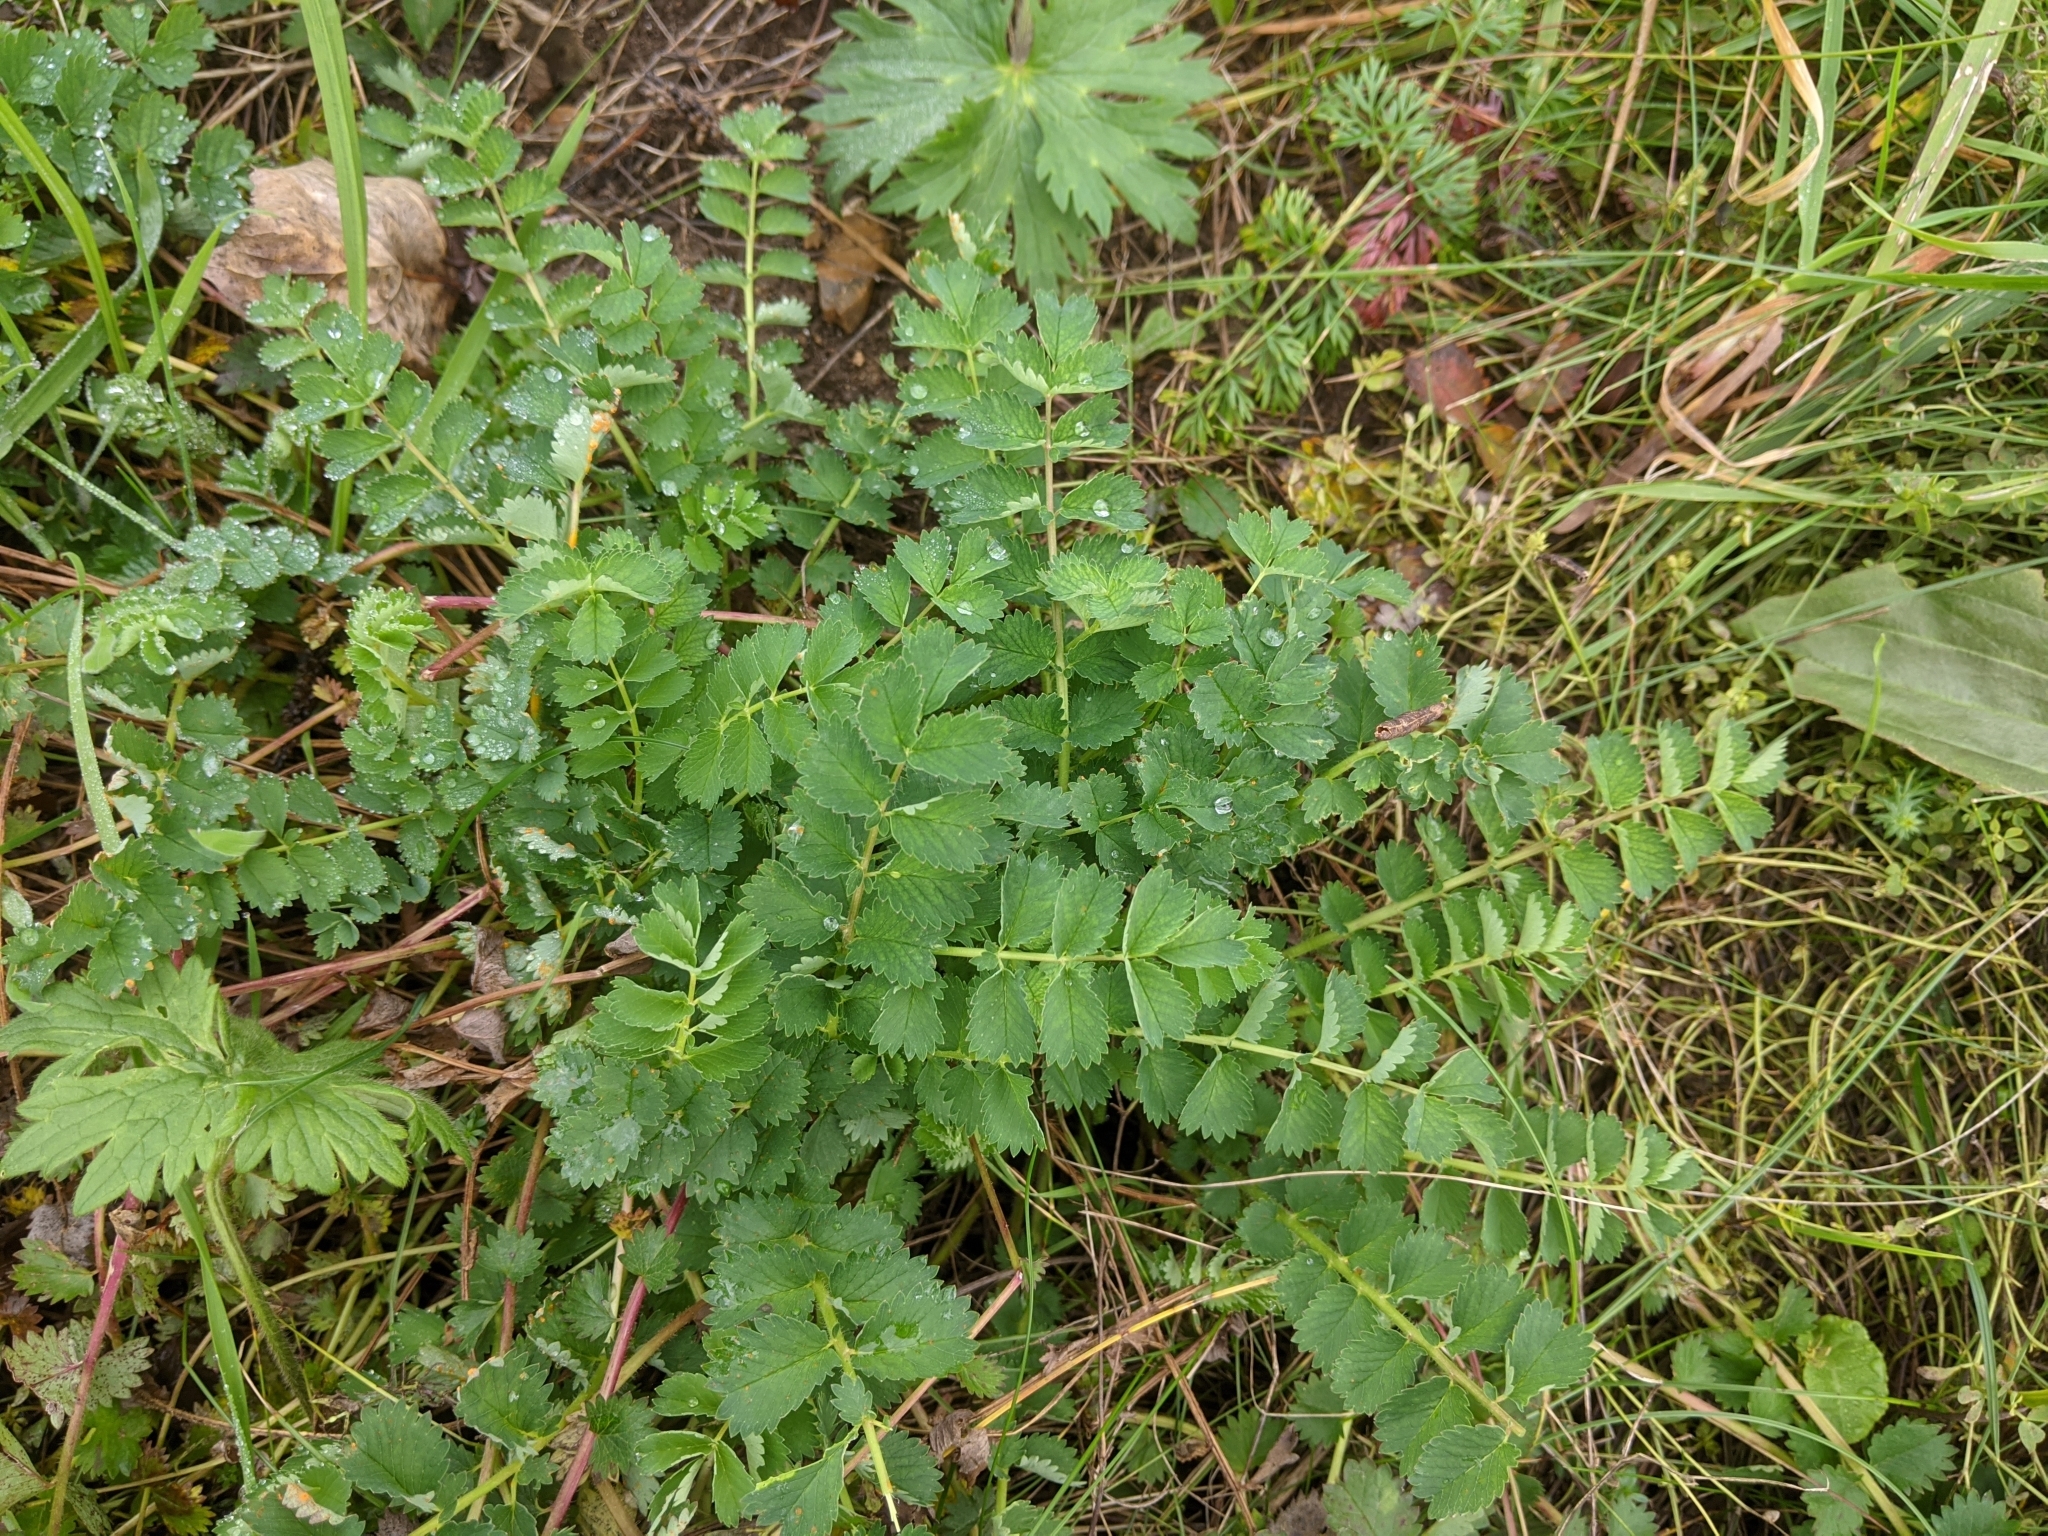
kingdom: Plantae
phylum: Tracheophyta
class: Magnoliopsida
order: Rosales
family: Rosaceae
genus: Poterium
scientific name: Poterium sanguisorba
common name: Salad burnet
